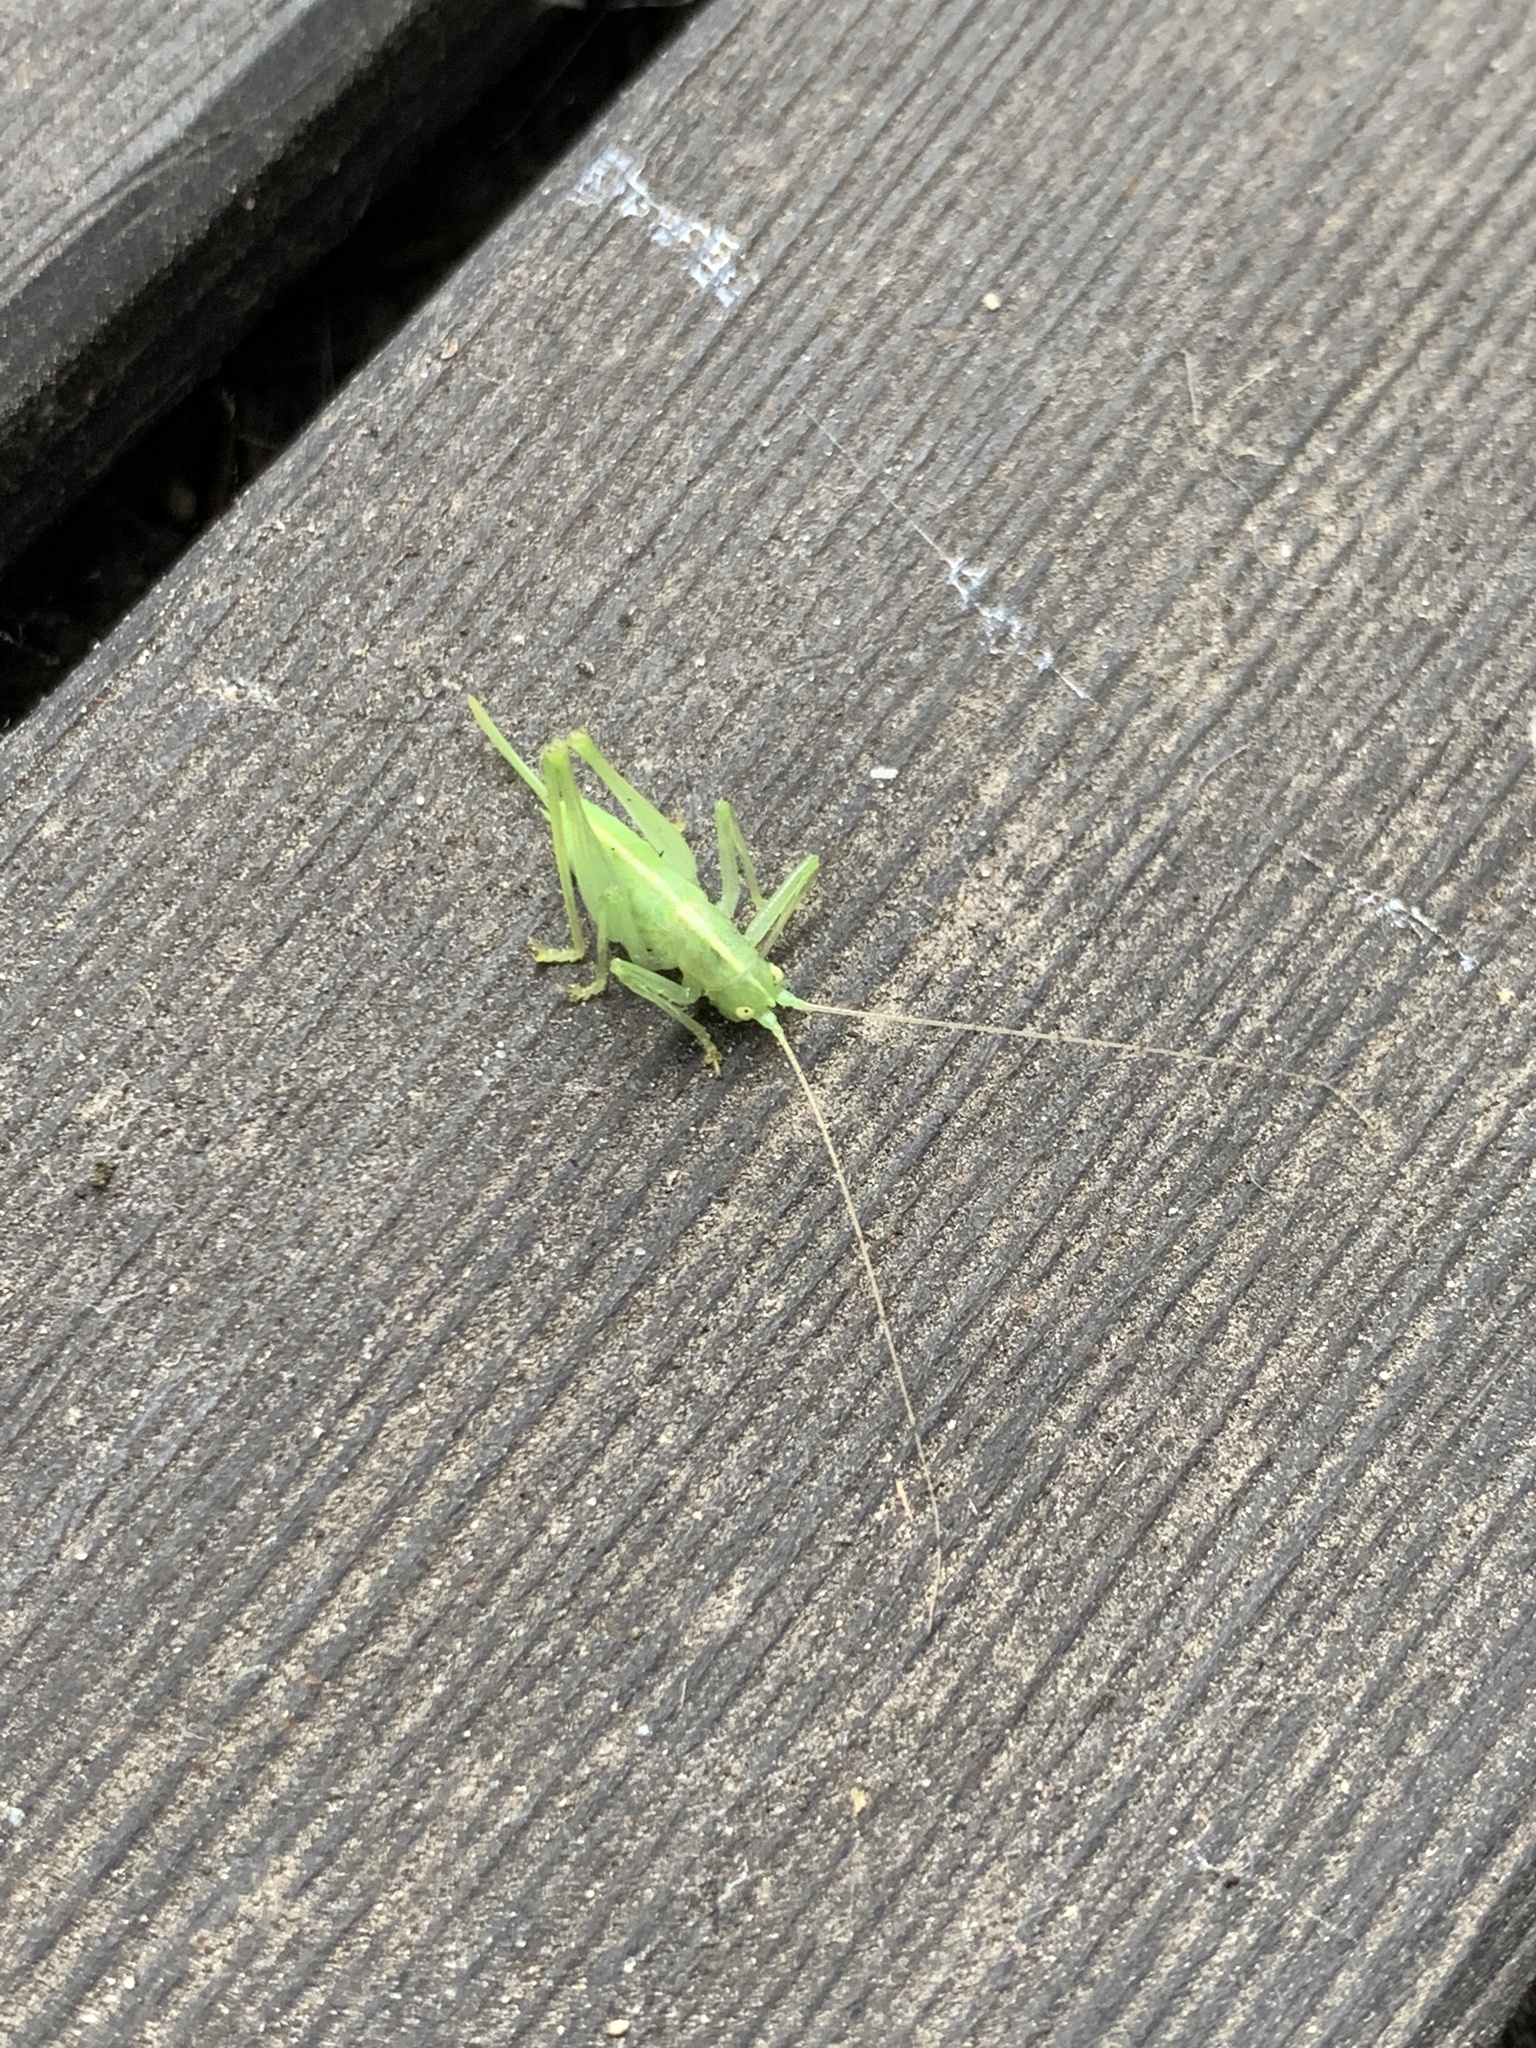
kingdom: Animalia
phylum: Arthropoda
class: Insecta
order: Orthoptera
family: Tettigoniidae
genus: Meconema
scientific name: Meconema meridionale
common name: Southern oak bush-cricket
